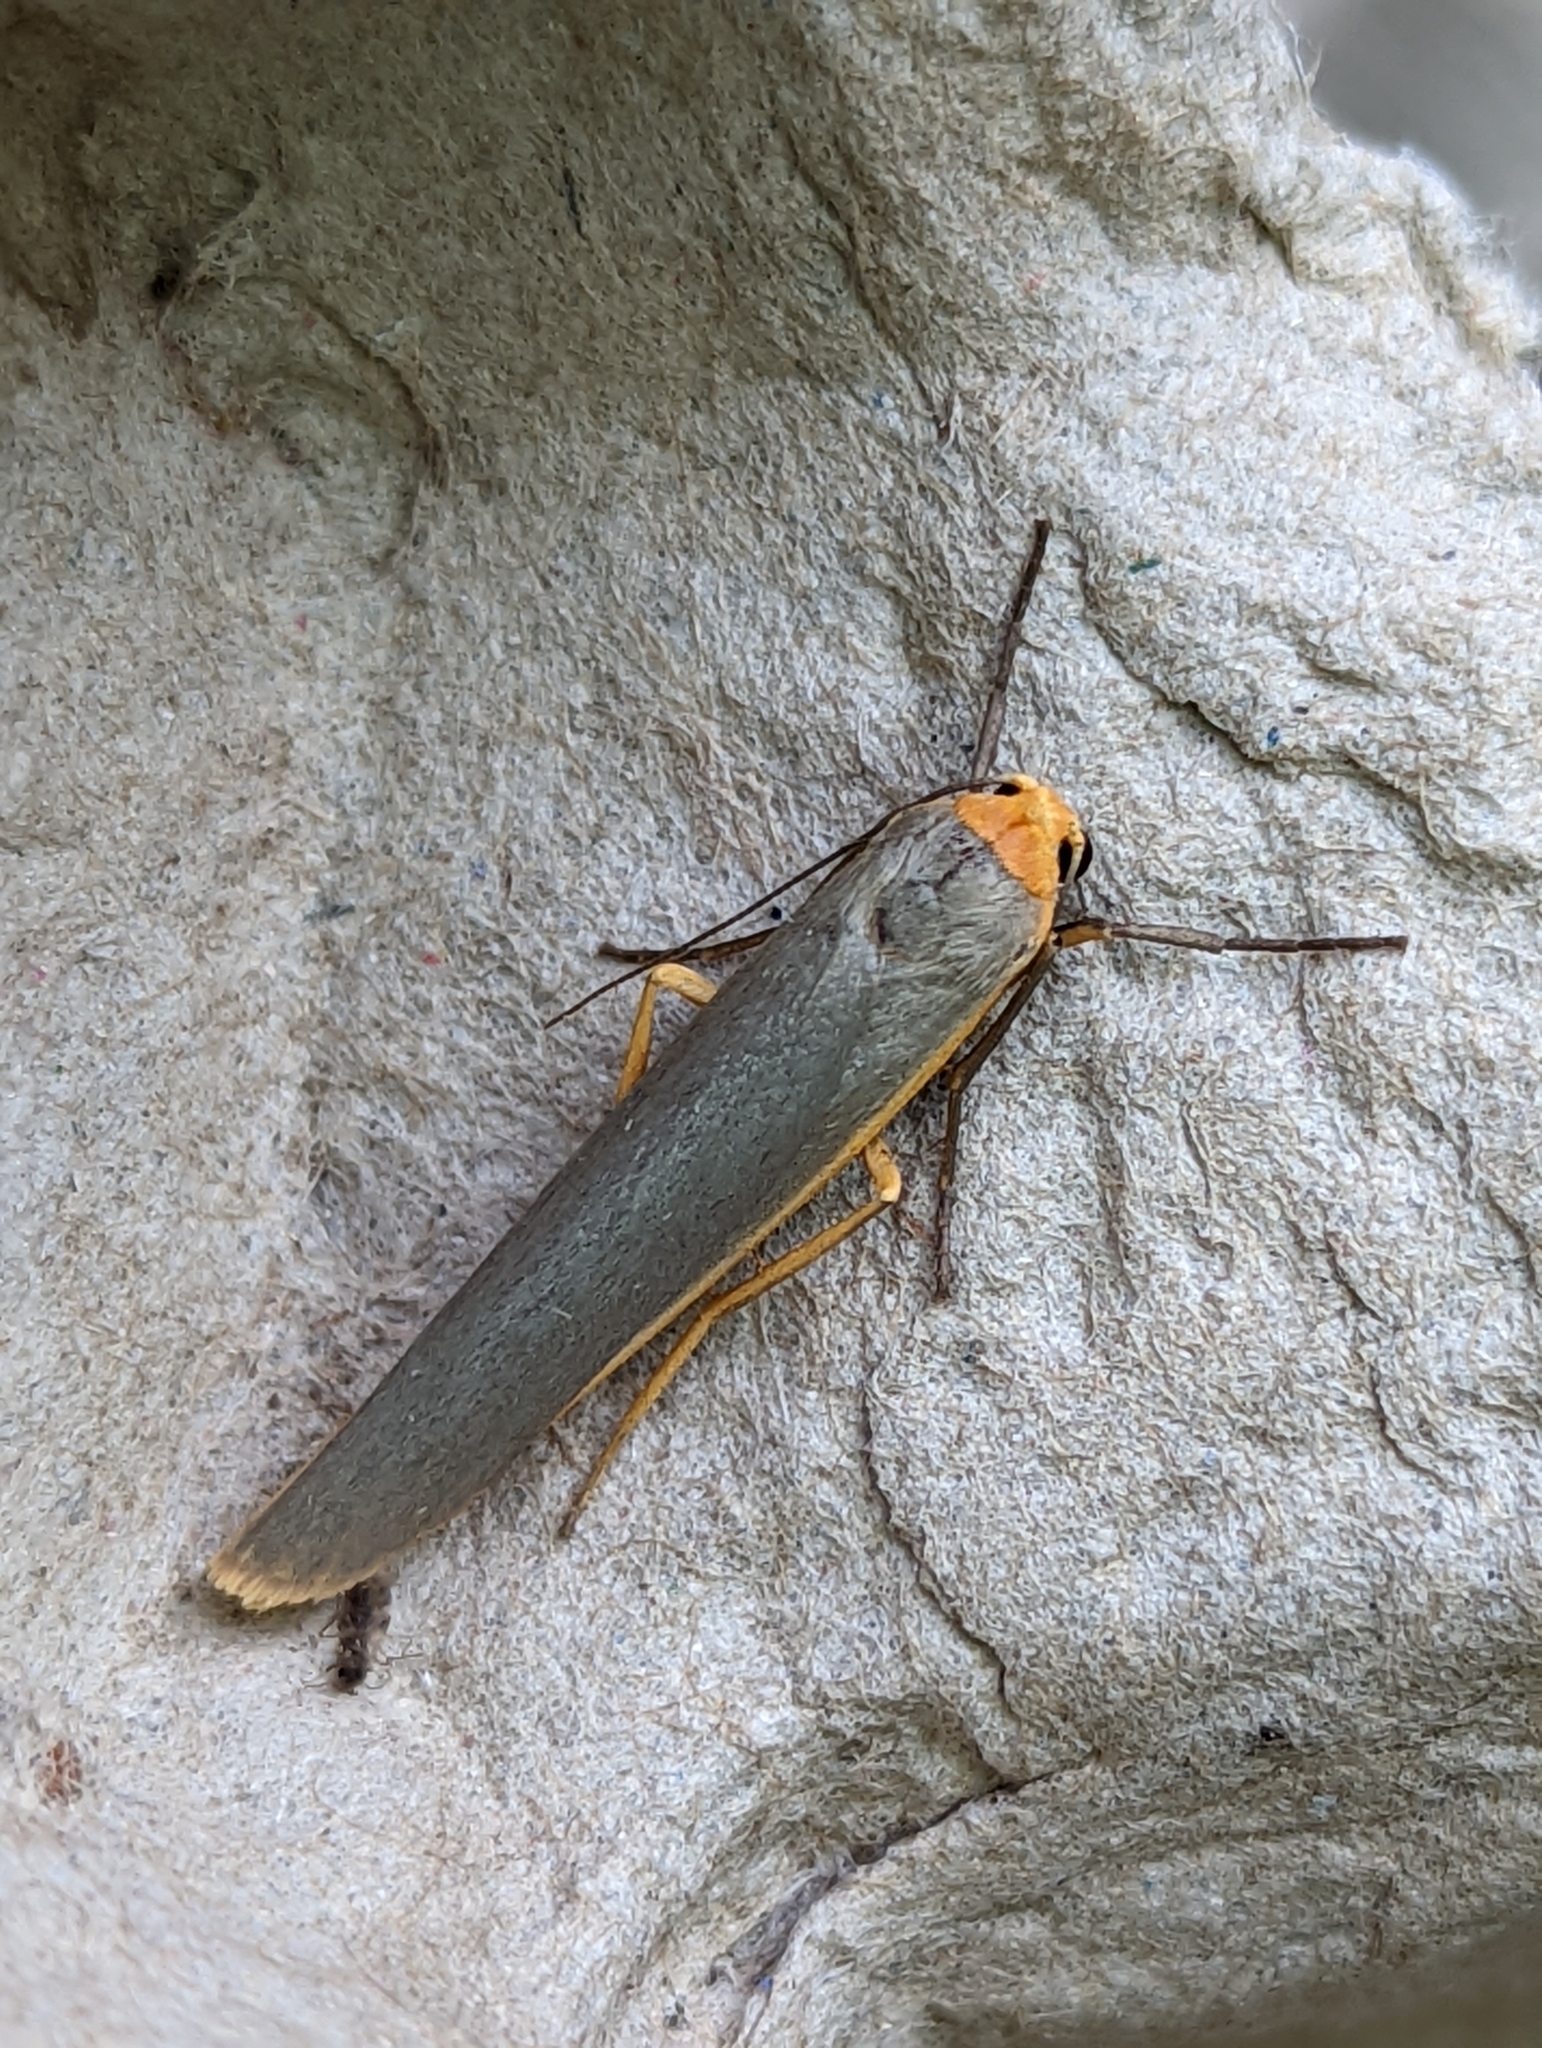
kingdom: Animalia
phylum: Arthropoda
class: Insecta
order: Lepidoptera
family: Erebidae
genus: Manulea
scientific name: Manulea complana
